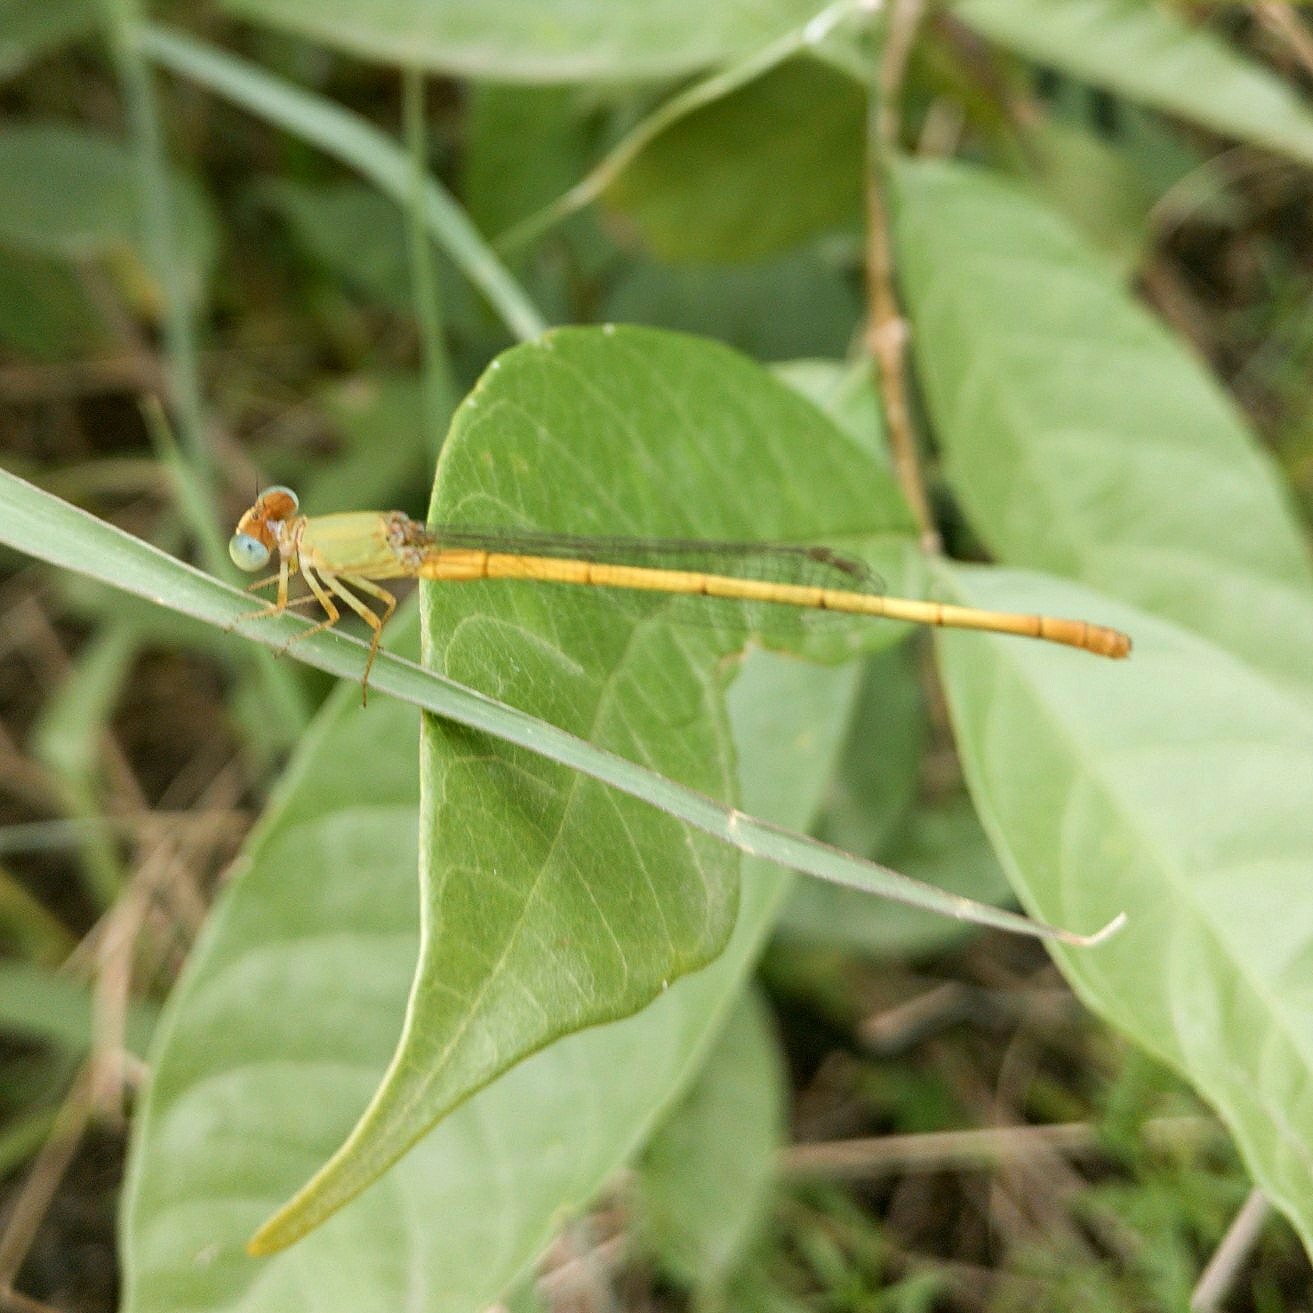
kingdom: Animalia
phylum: Arthropoda
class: Insecta
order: Odonata
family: Coenagrionidae
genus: Ceriagrion
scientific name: Ceriagrion coromandelianum
